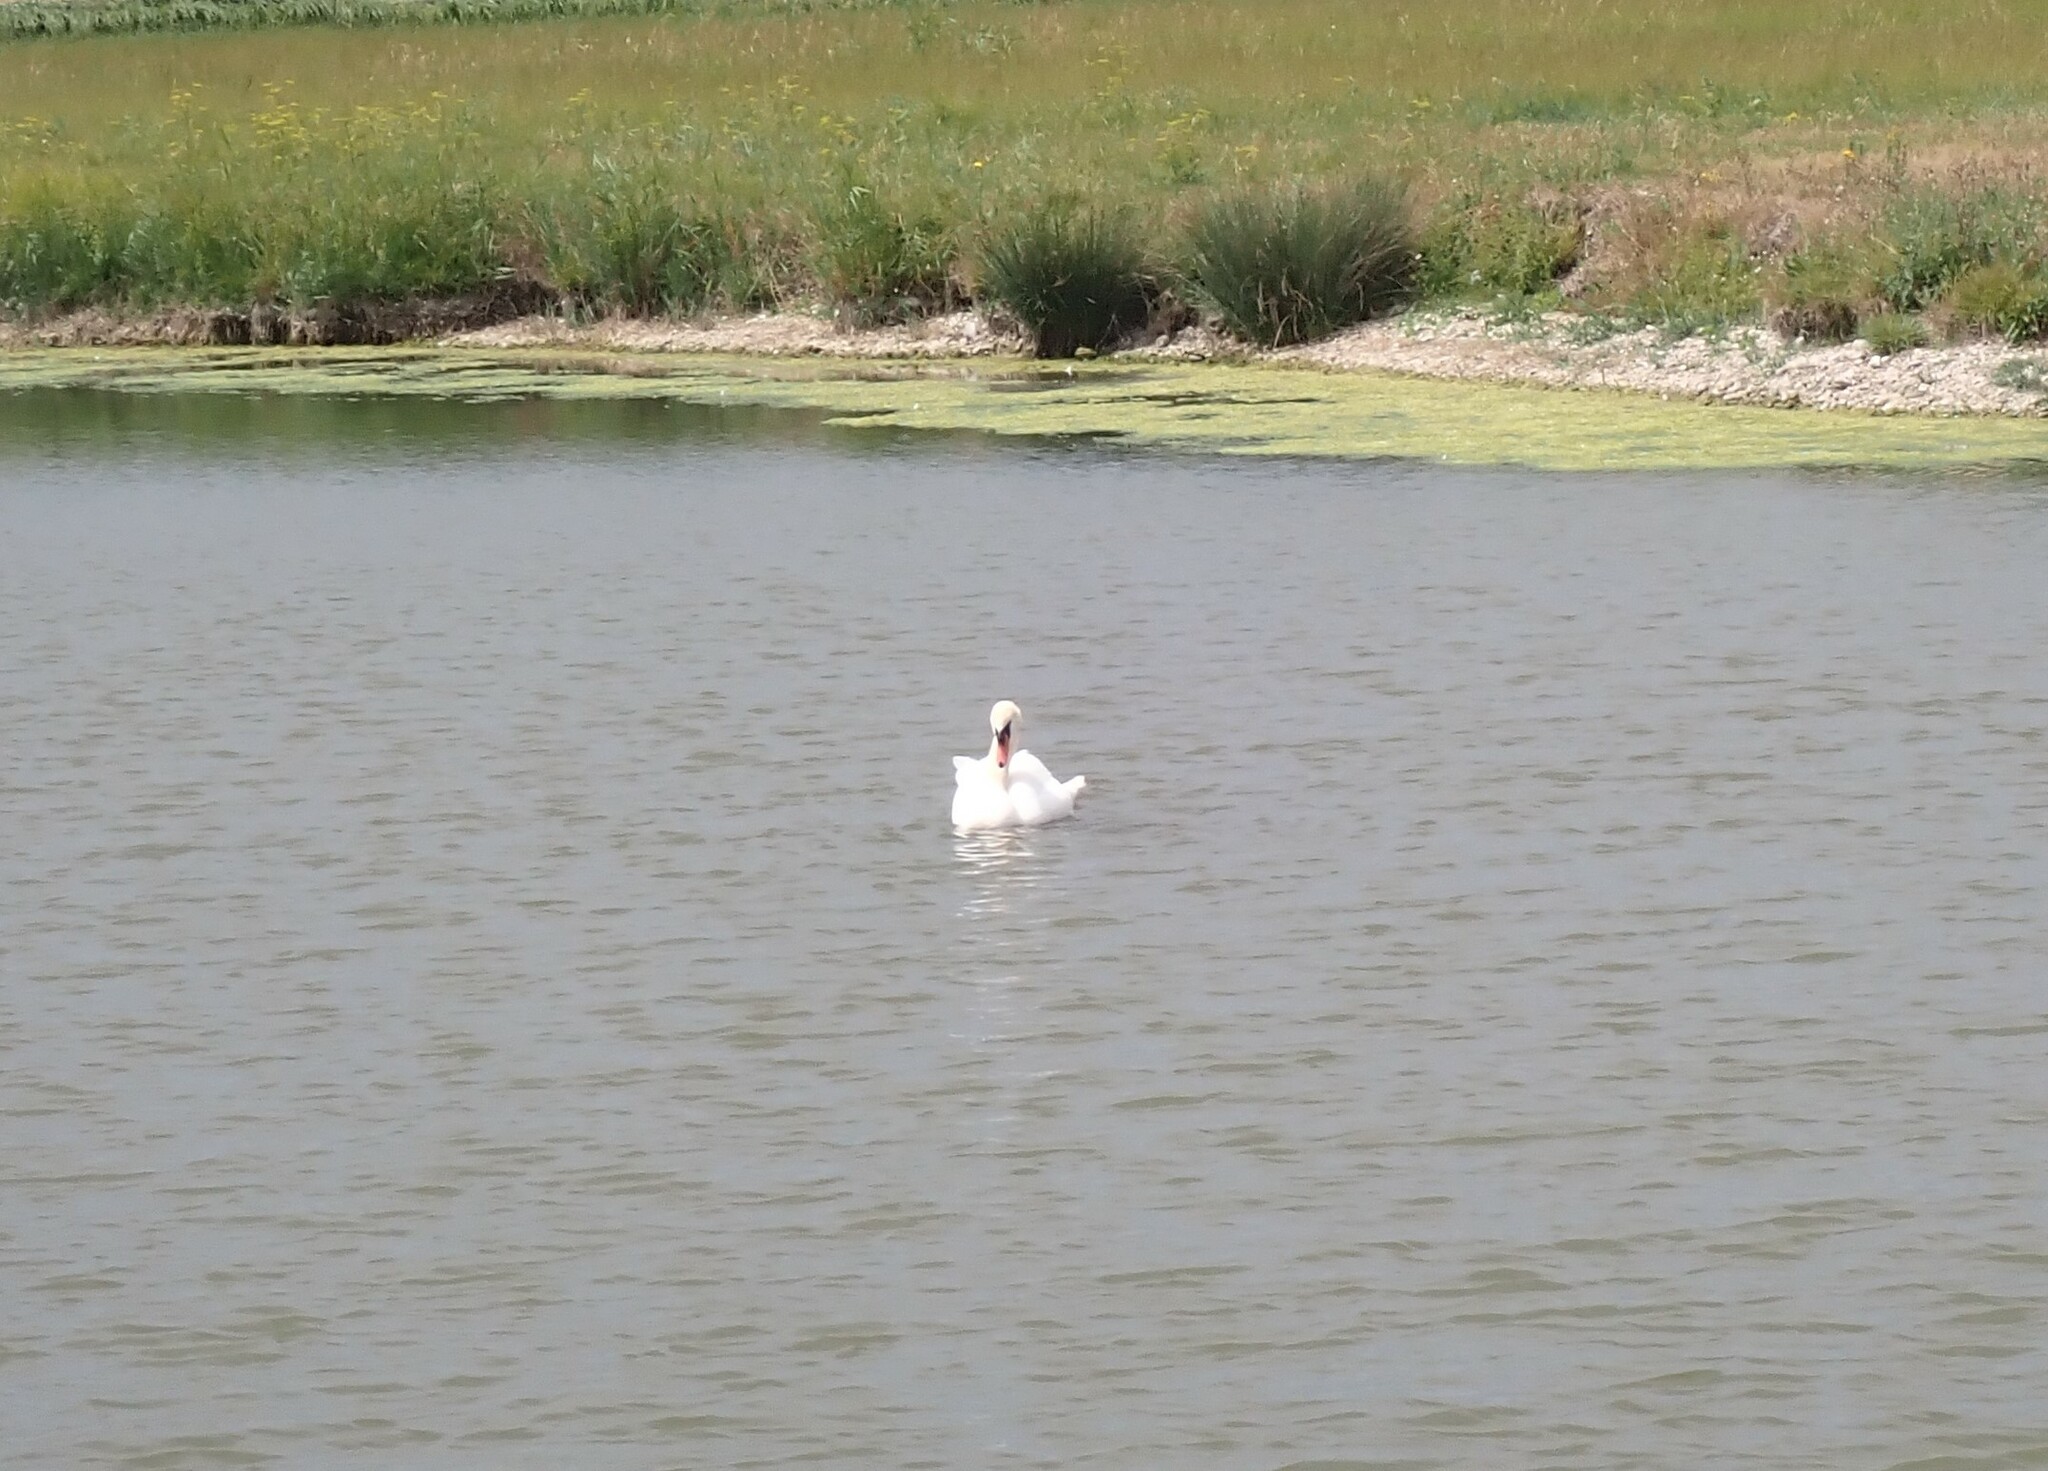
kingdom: Animalia
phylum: Chordata
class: Aves
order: Anseriformes
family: Anatidae
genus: Cygnus
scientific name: Cygnus olor
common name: Mute swan
